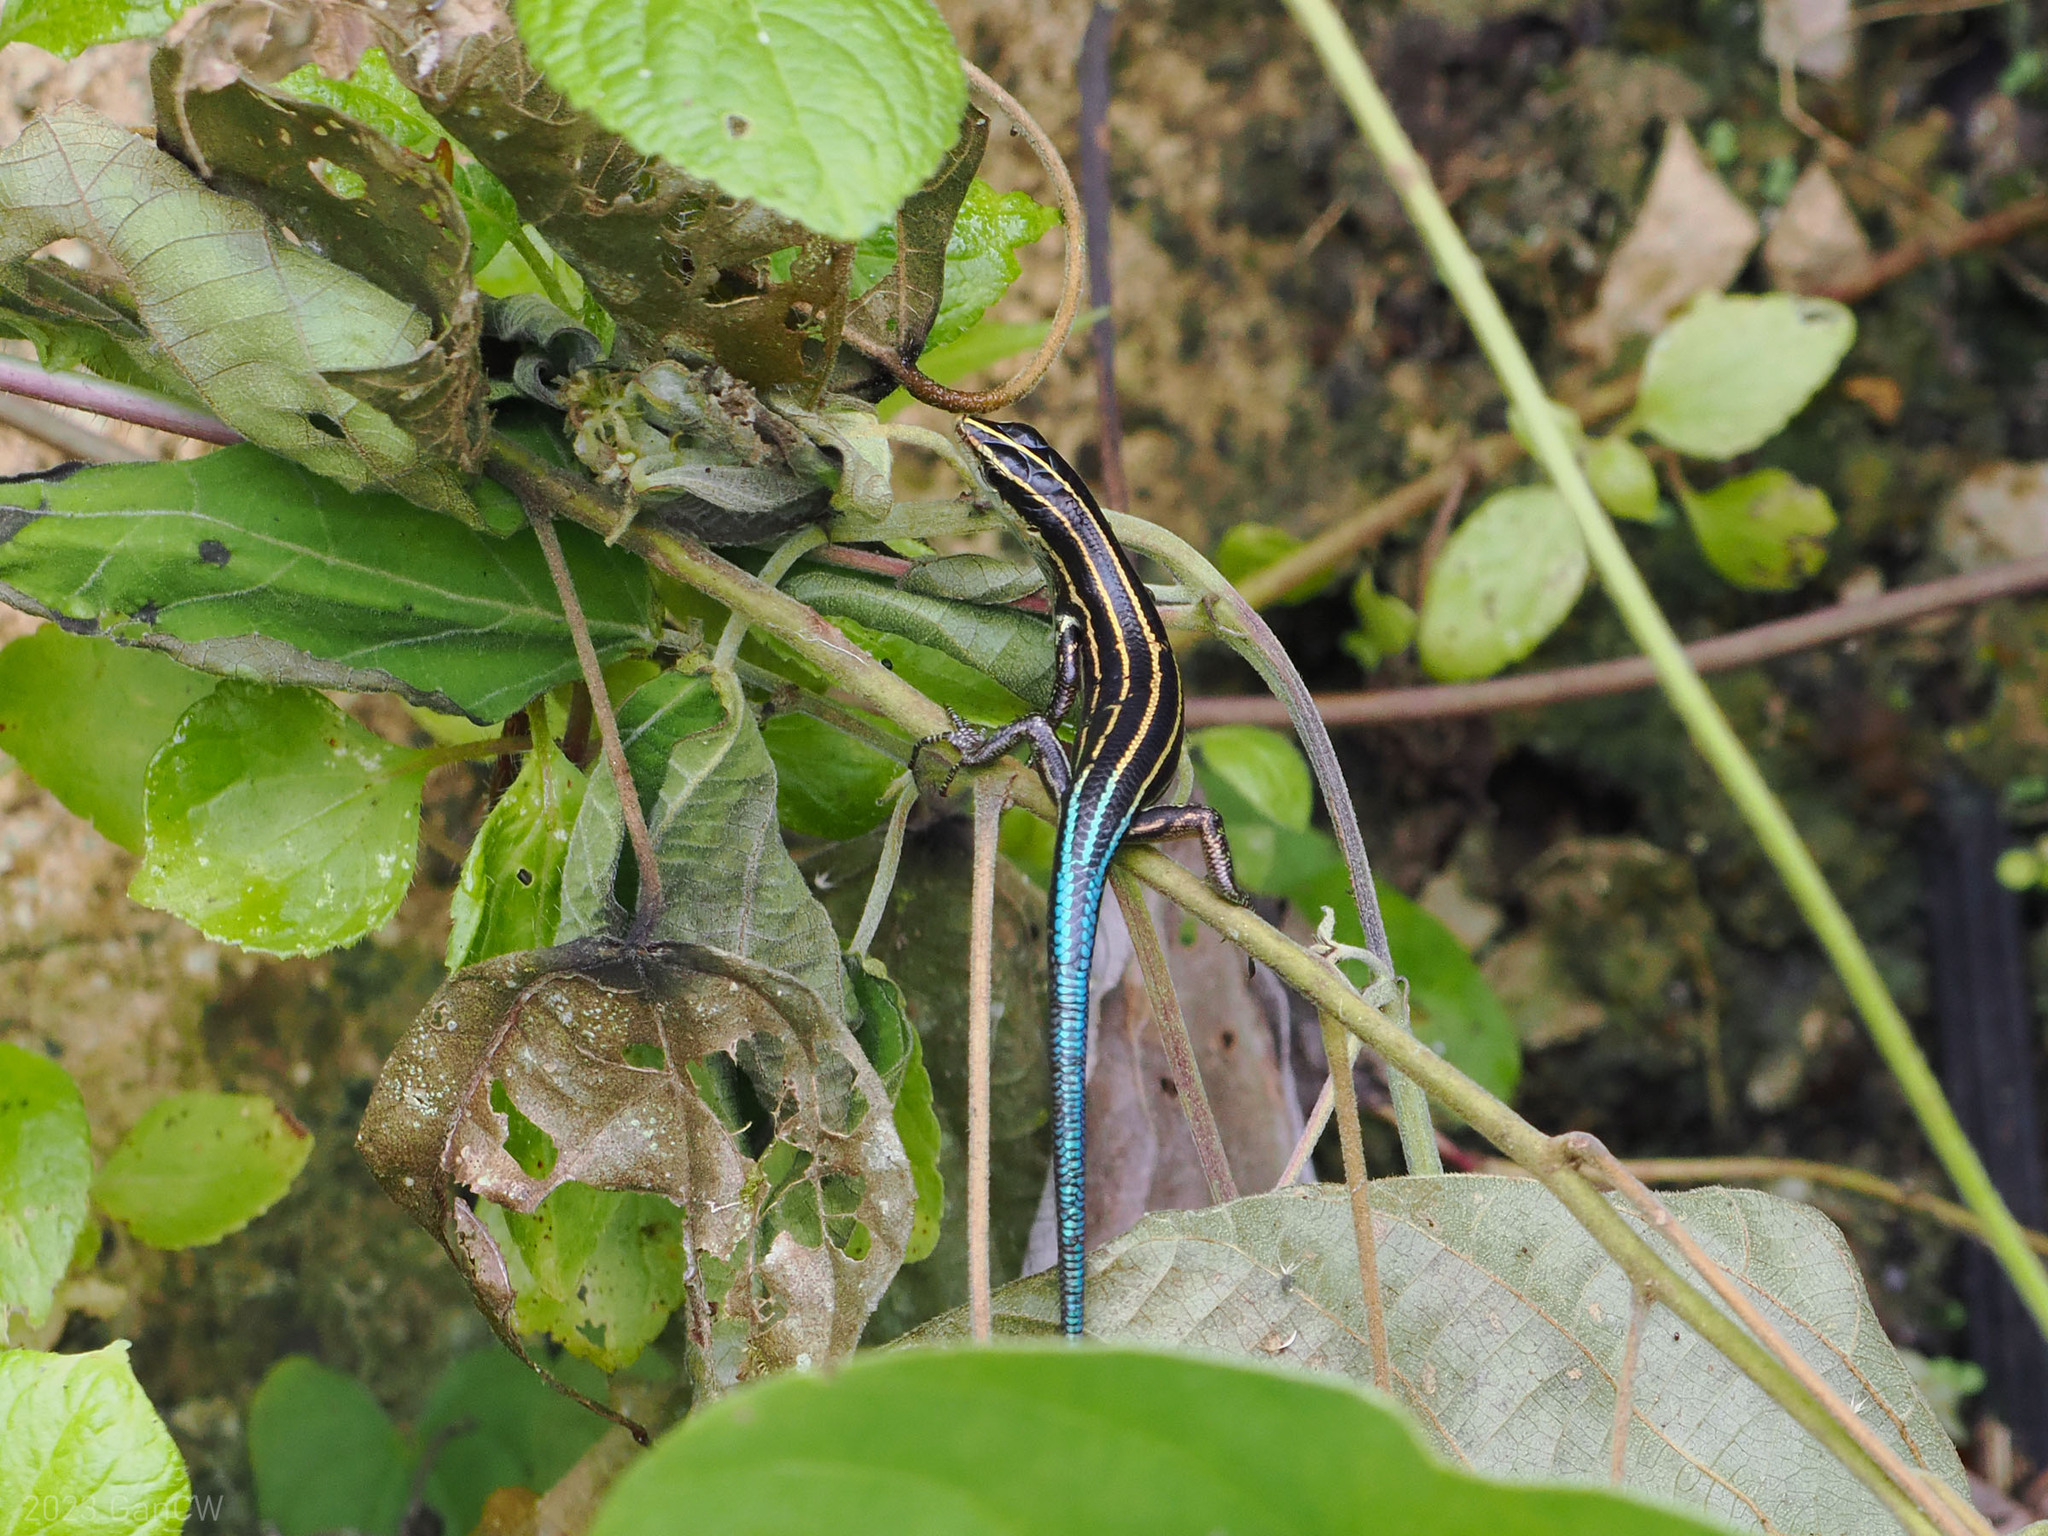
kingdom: Animalia
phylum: Chordata
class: Squamata
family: Scincidae
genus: Emoia
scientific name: Emoia caeruleocauda
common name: Pacific bluetail skink
